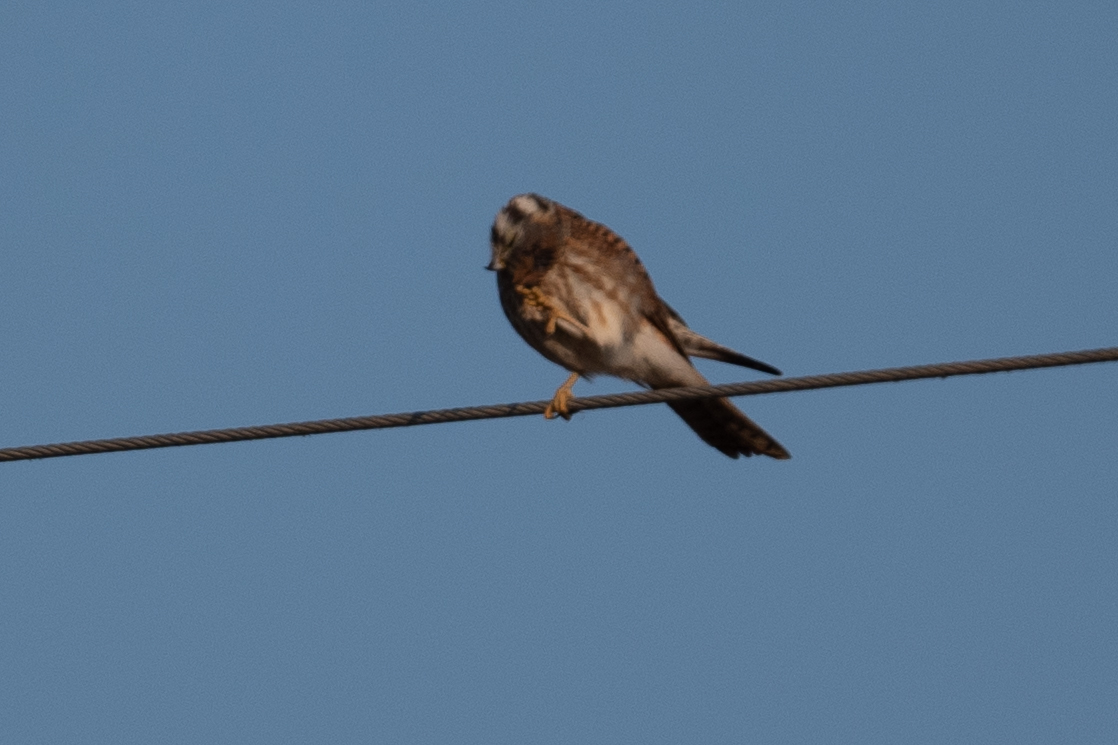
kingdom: Animalia
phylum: Chordata
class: Aves
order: Falconiformes
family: Falconidae
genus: Falco
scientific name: Falco sparverius
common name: American kestrel
